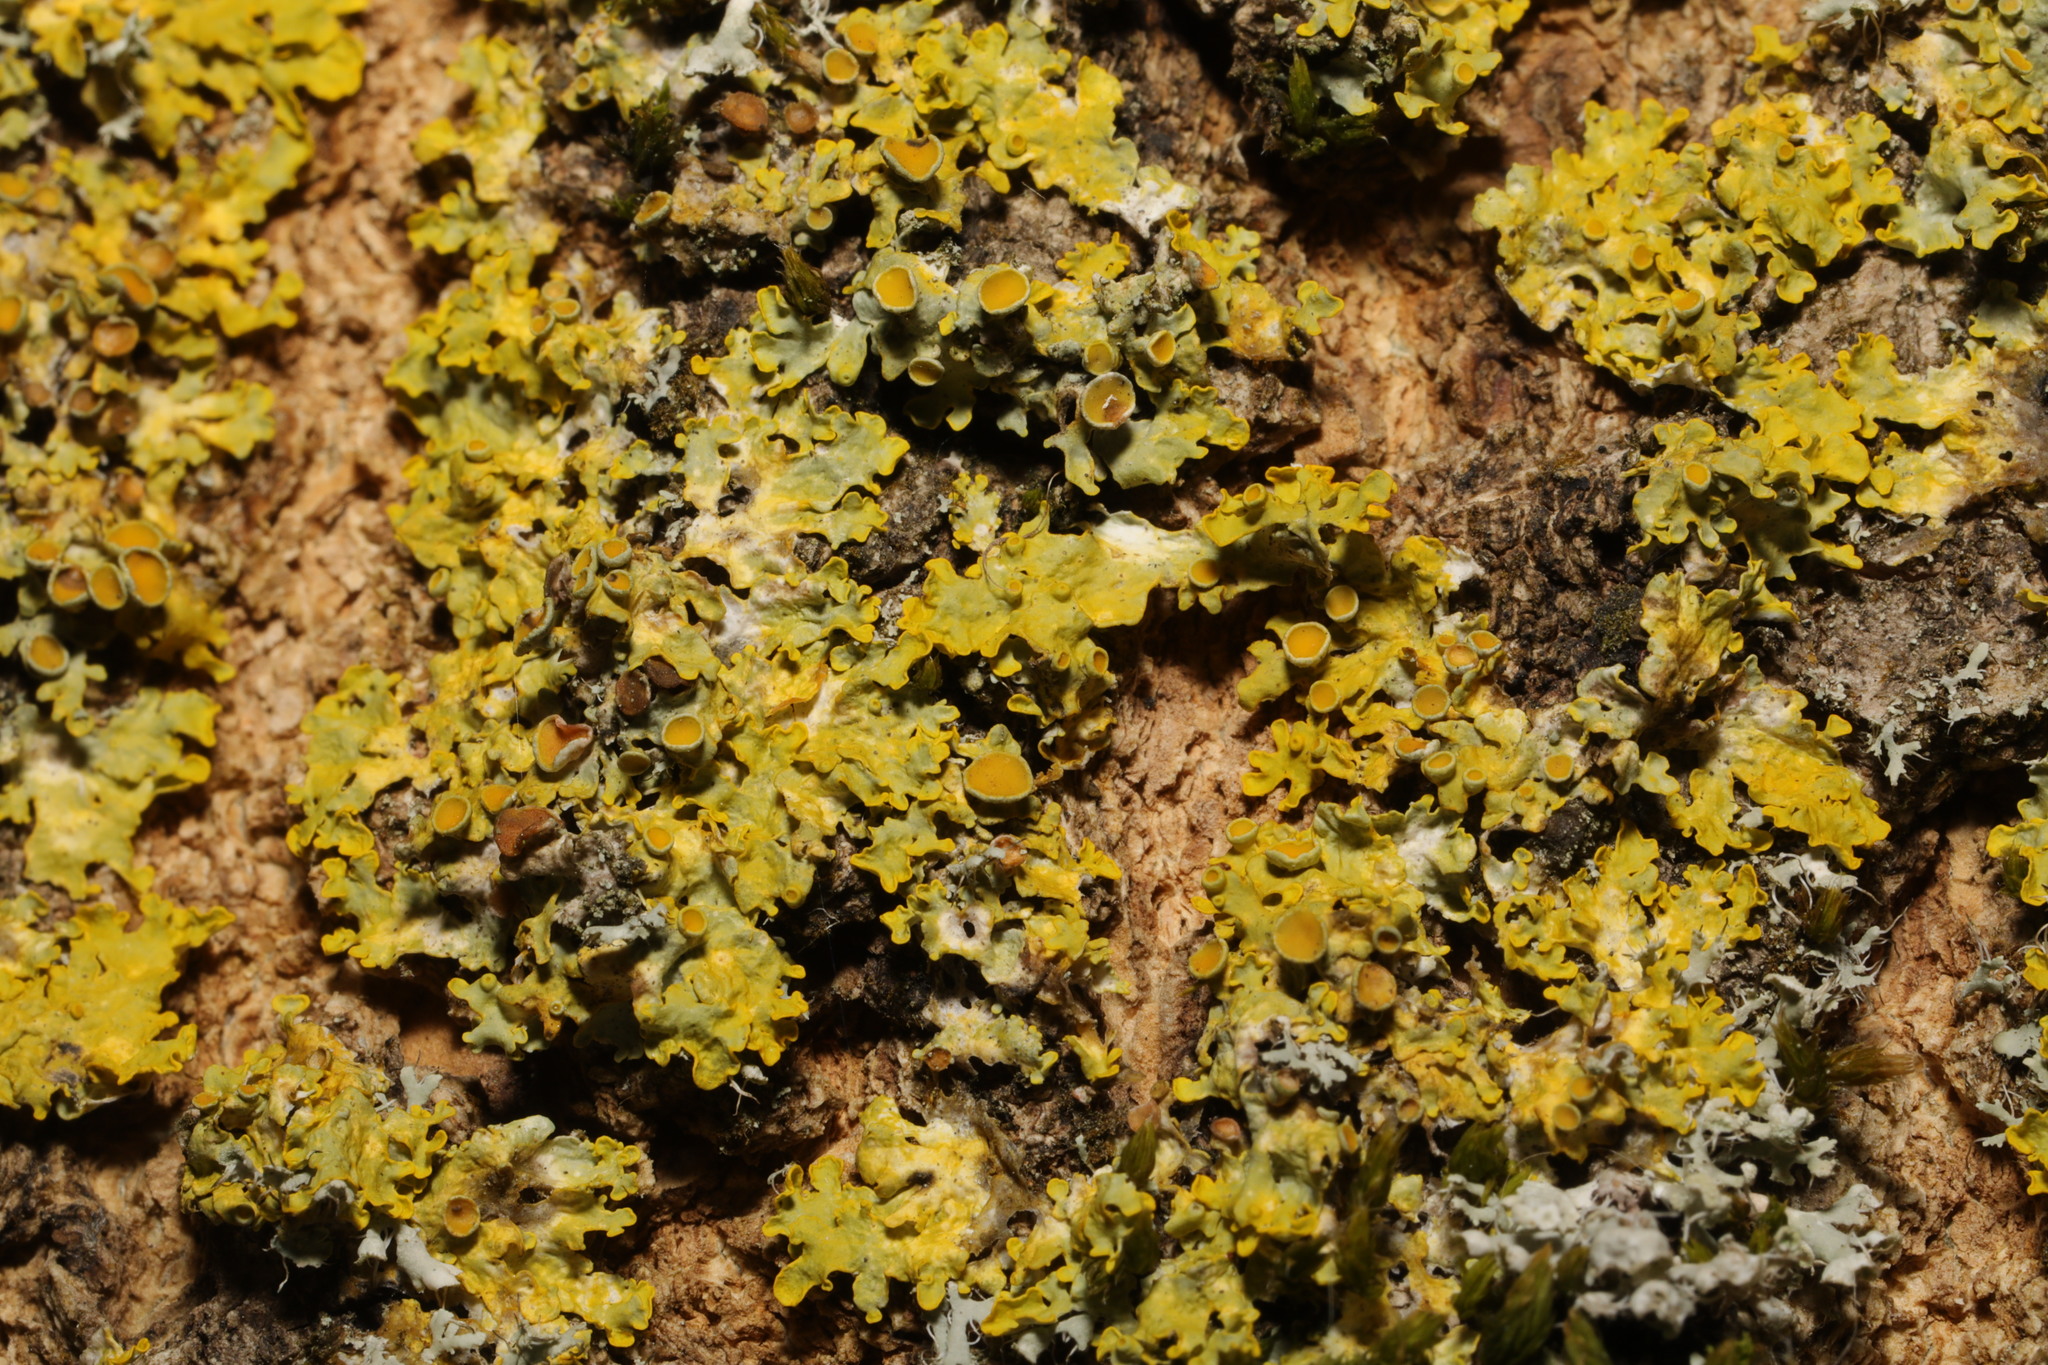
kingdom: Fungi
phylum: Ascomycota
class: Lecanoromycetes
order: Teloschistales
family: Teloschistaceae
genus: Xanthoria
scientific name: Xanthoria parietina
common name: Common orange lichen
